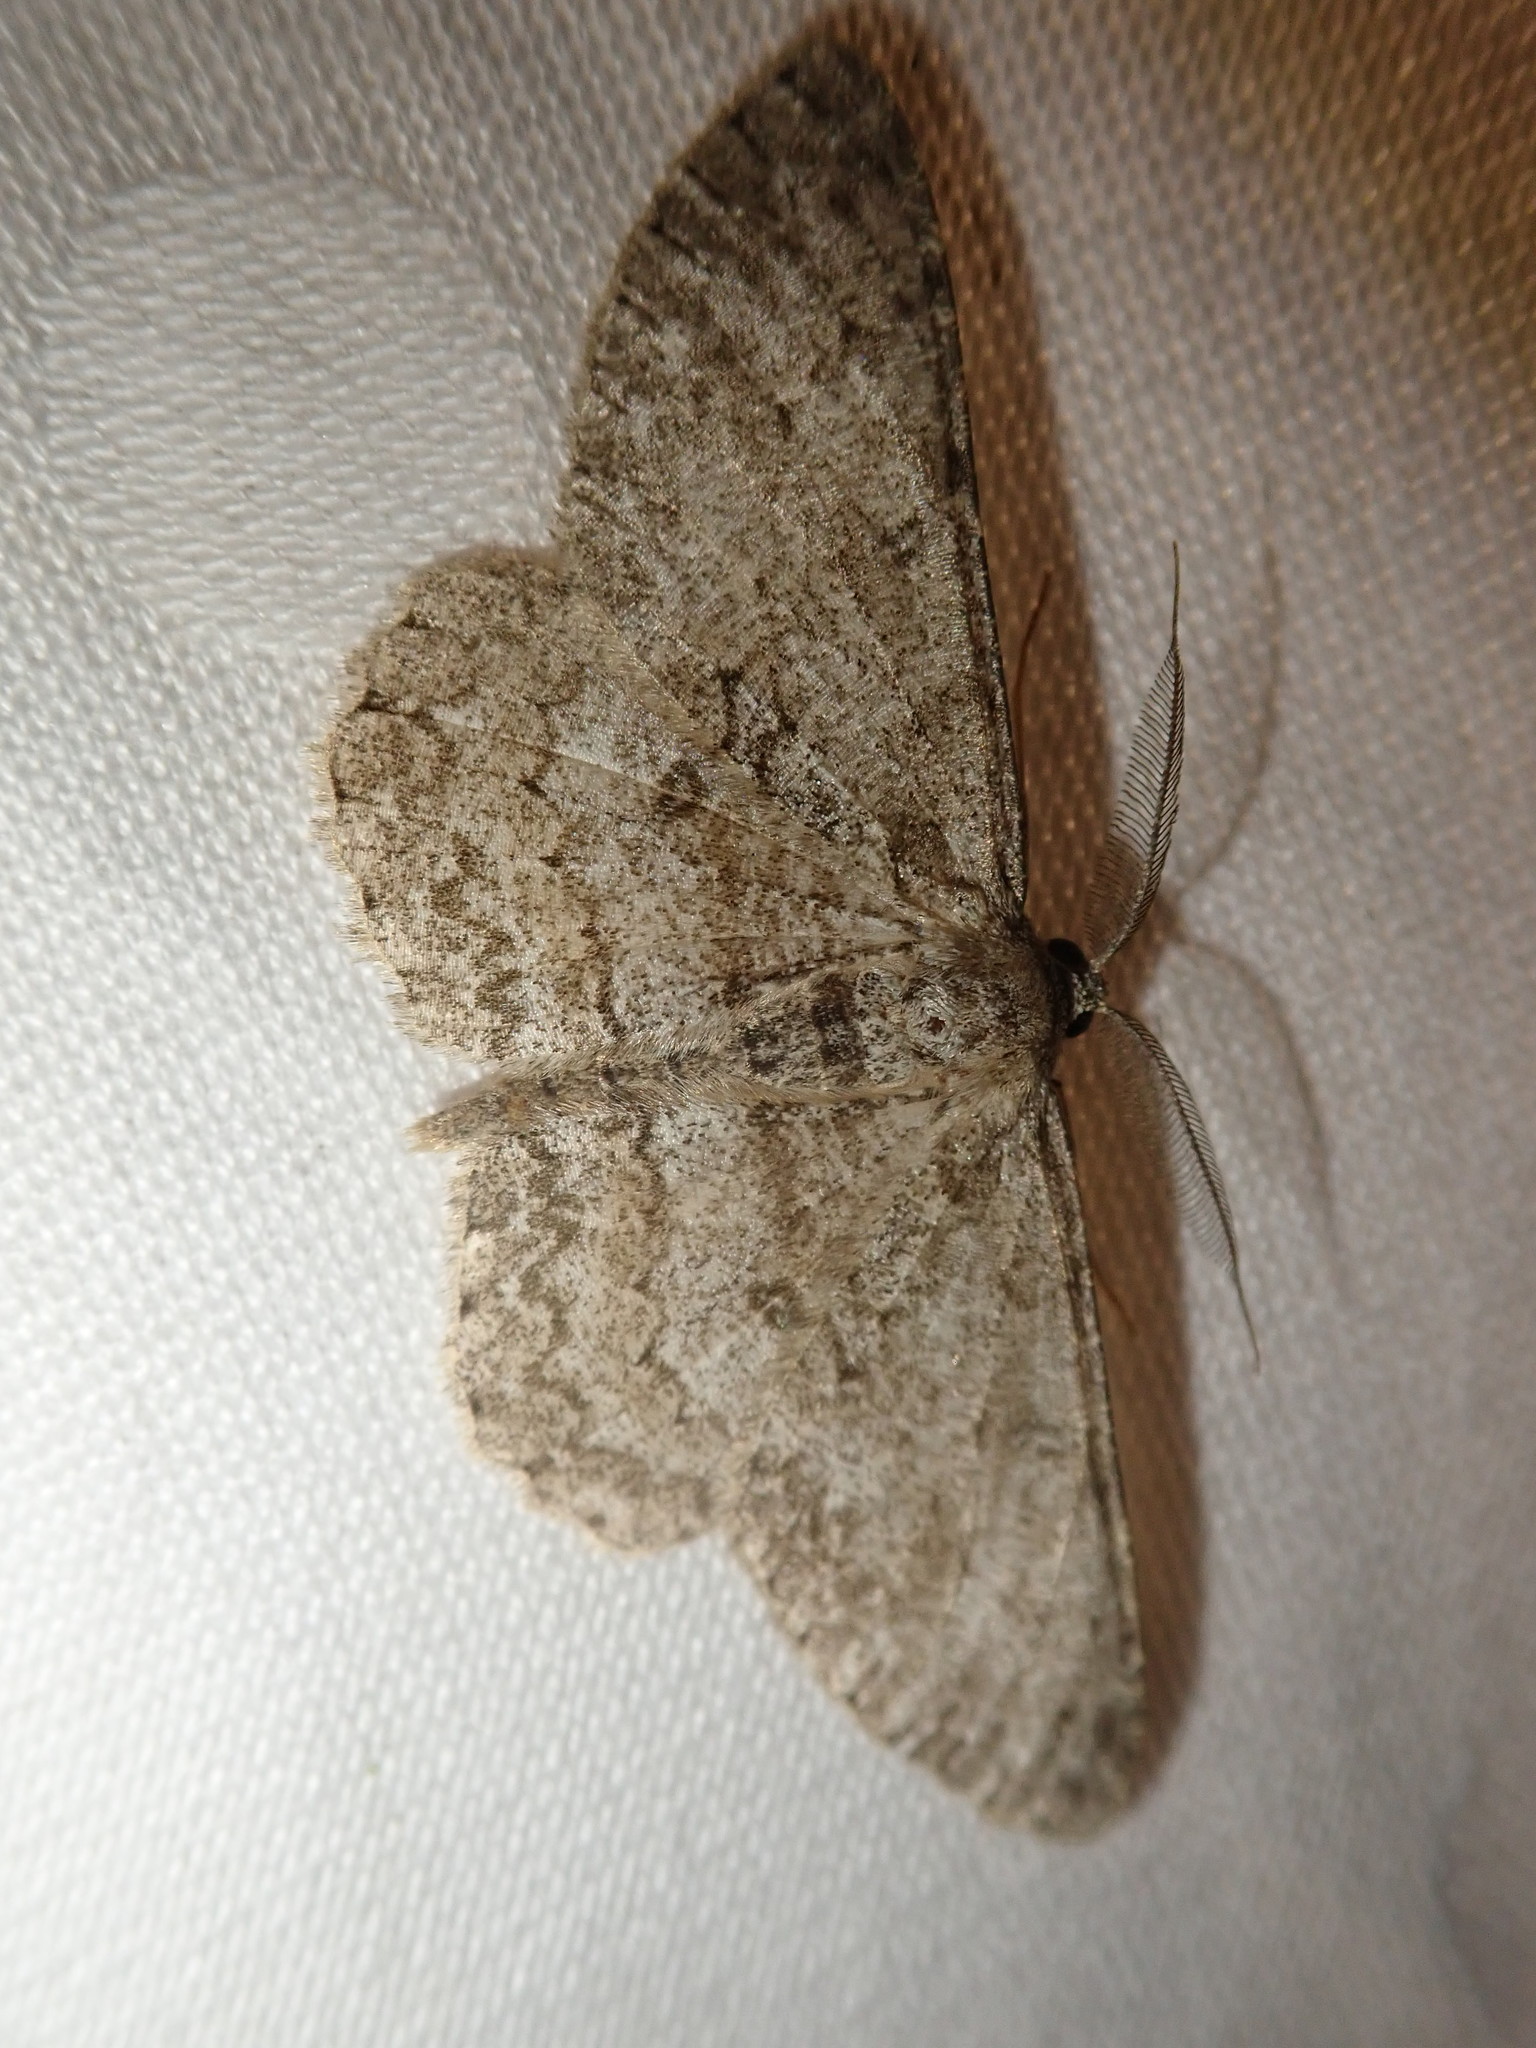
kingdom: Animalia
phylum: Arthropoda
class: Insecta
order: Lepidoptera
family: Geometridae
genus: Hypomecis
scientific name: Hypomecis punctinalis
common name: Pale oak beauty
